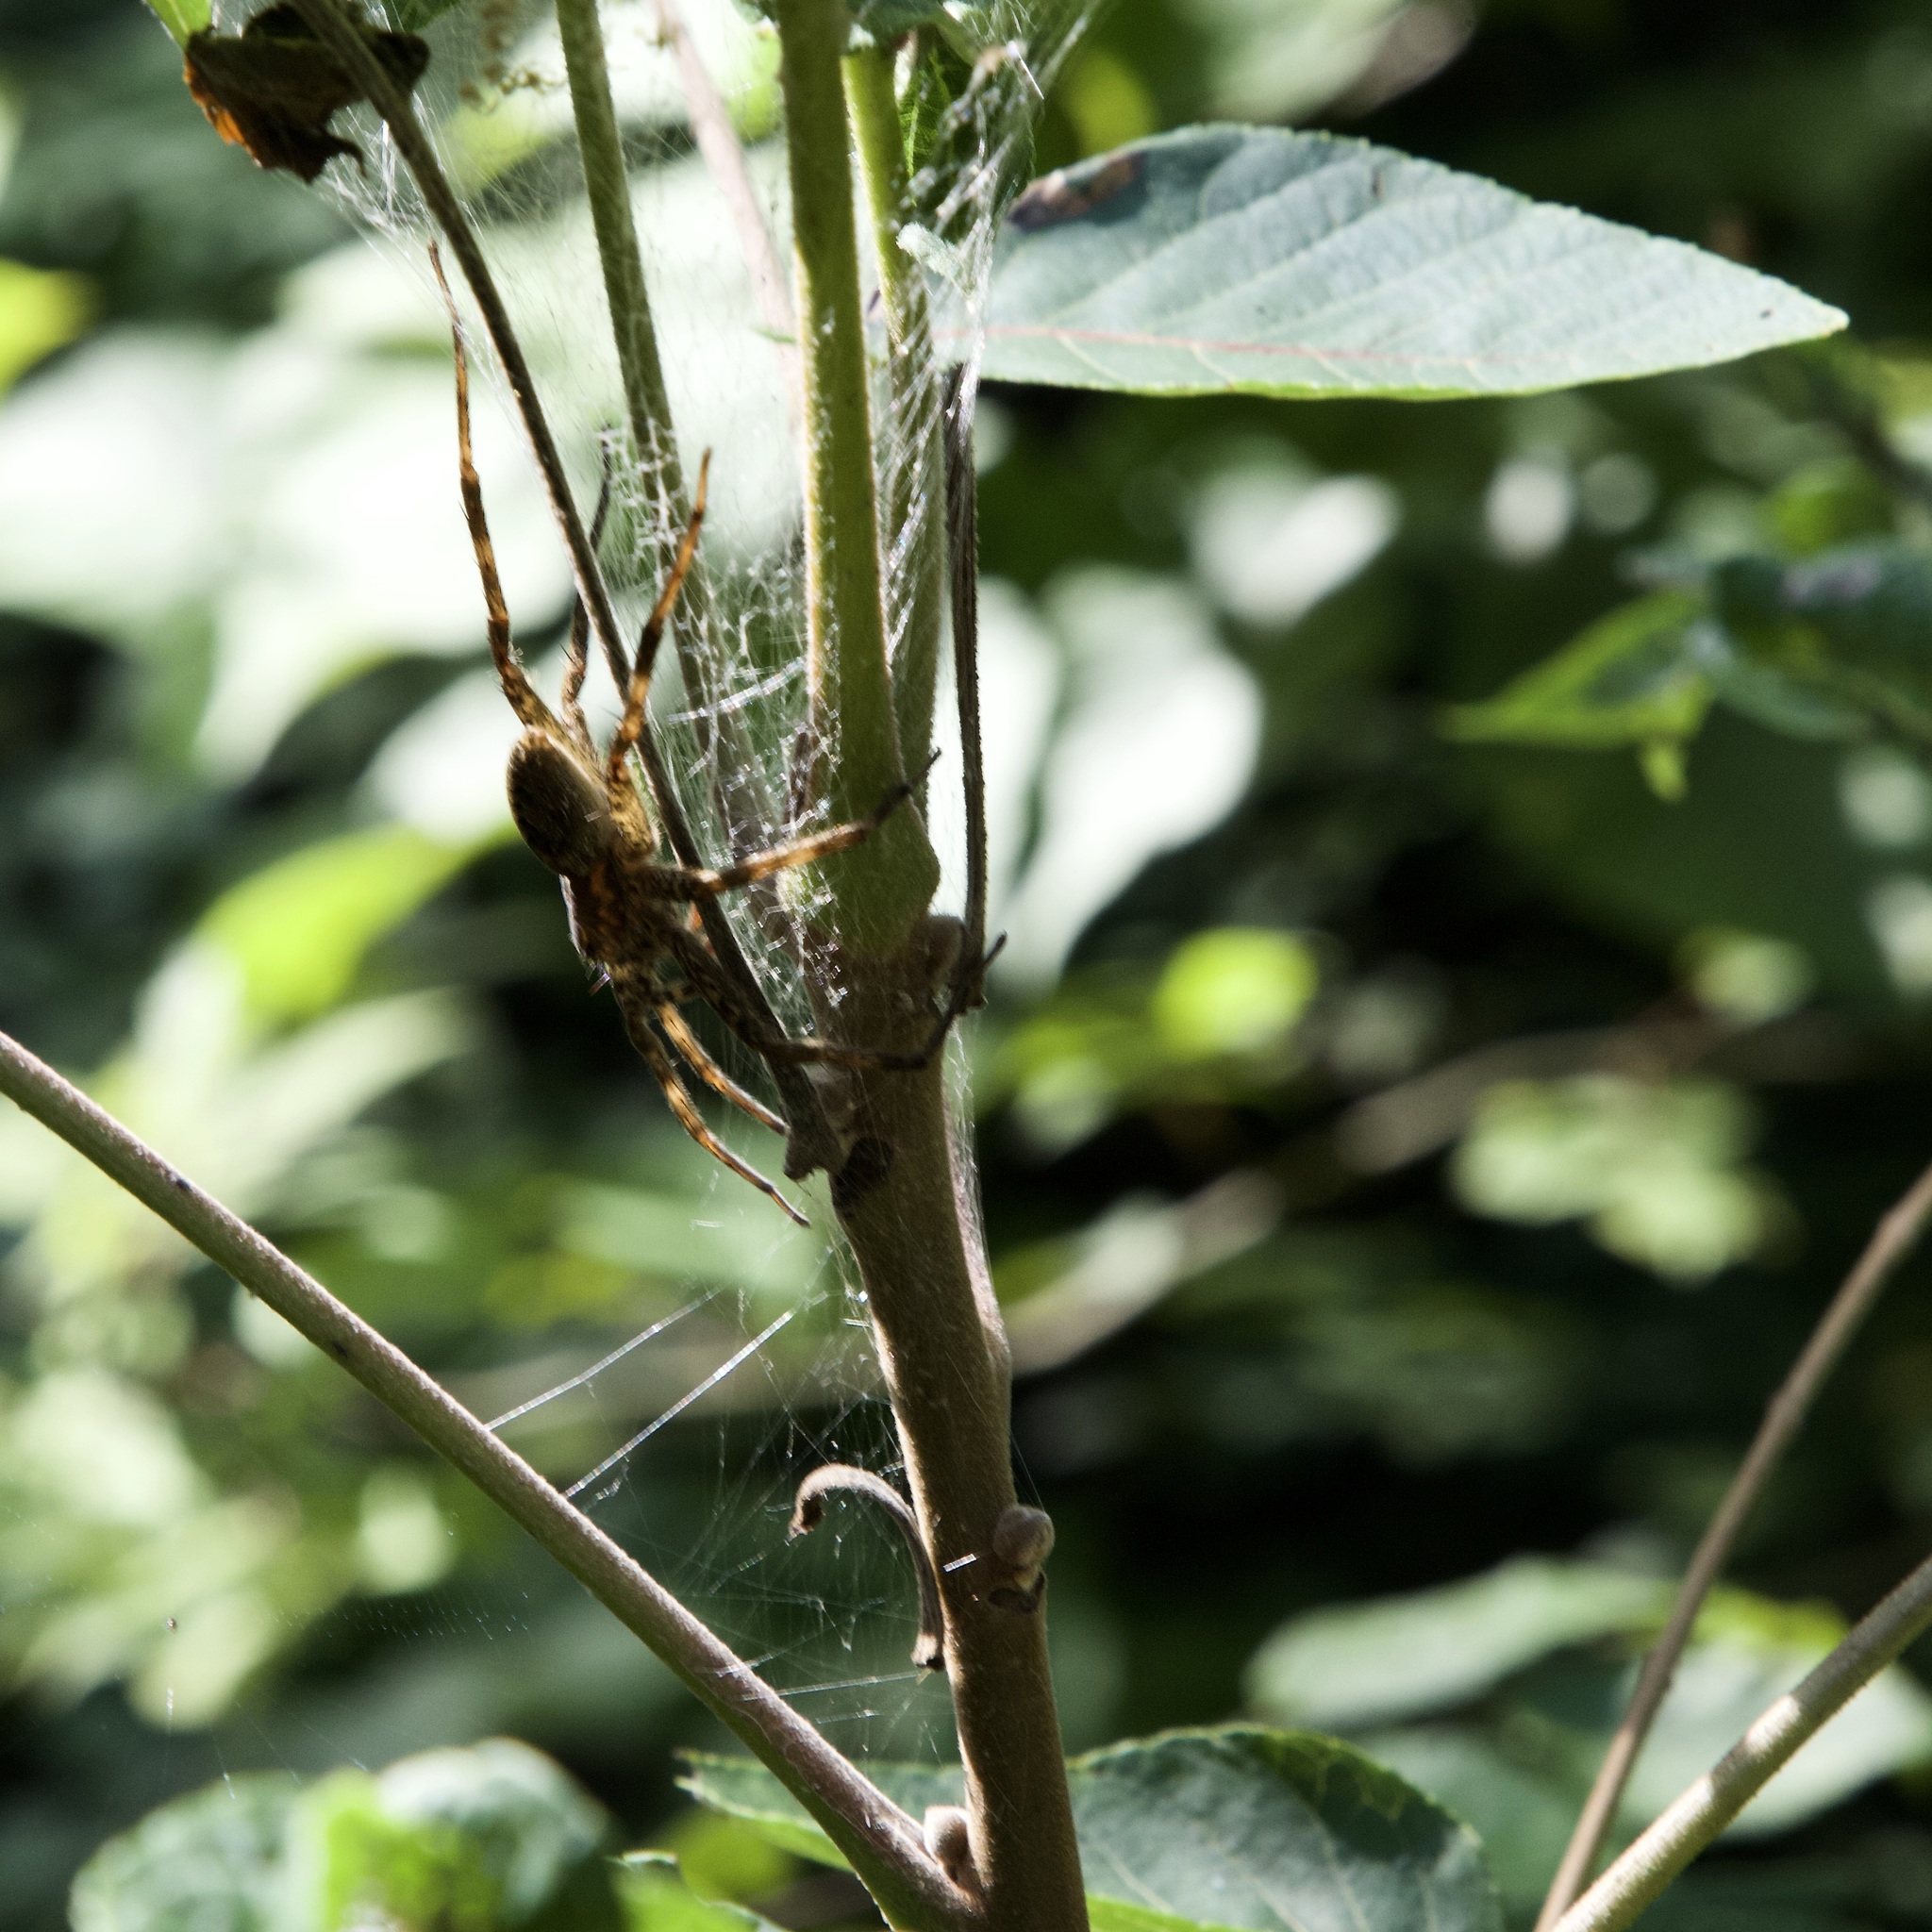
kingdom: Animalia
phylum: Arthropoda
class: Arachnida
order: Araneae
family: Pisauridae
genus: Dolomedes
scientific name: Dolomedes albineus
